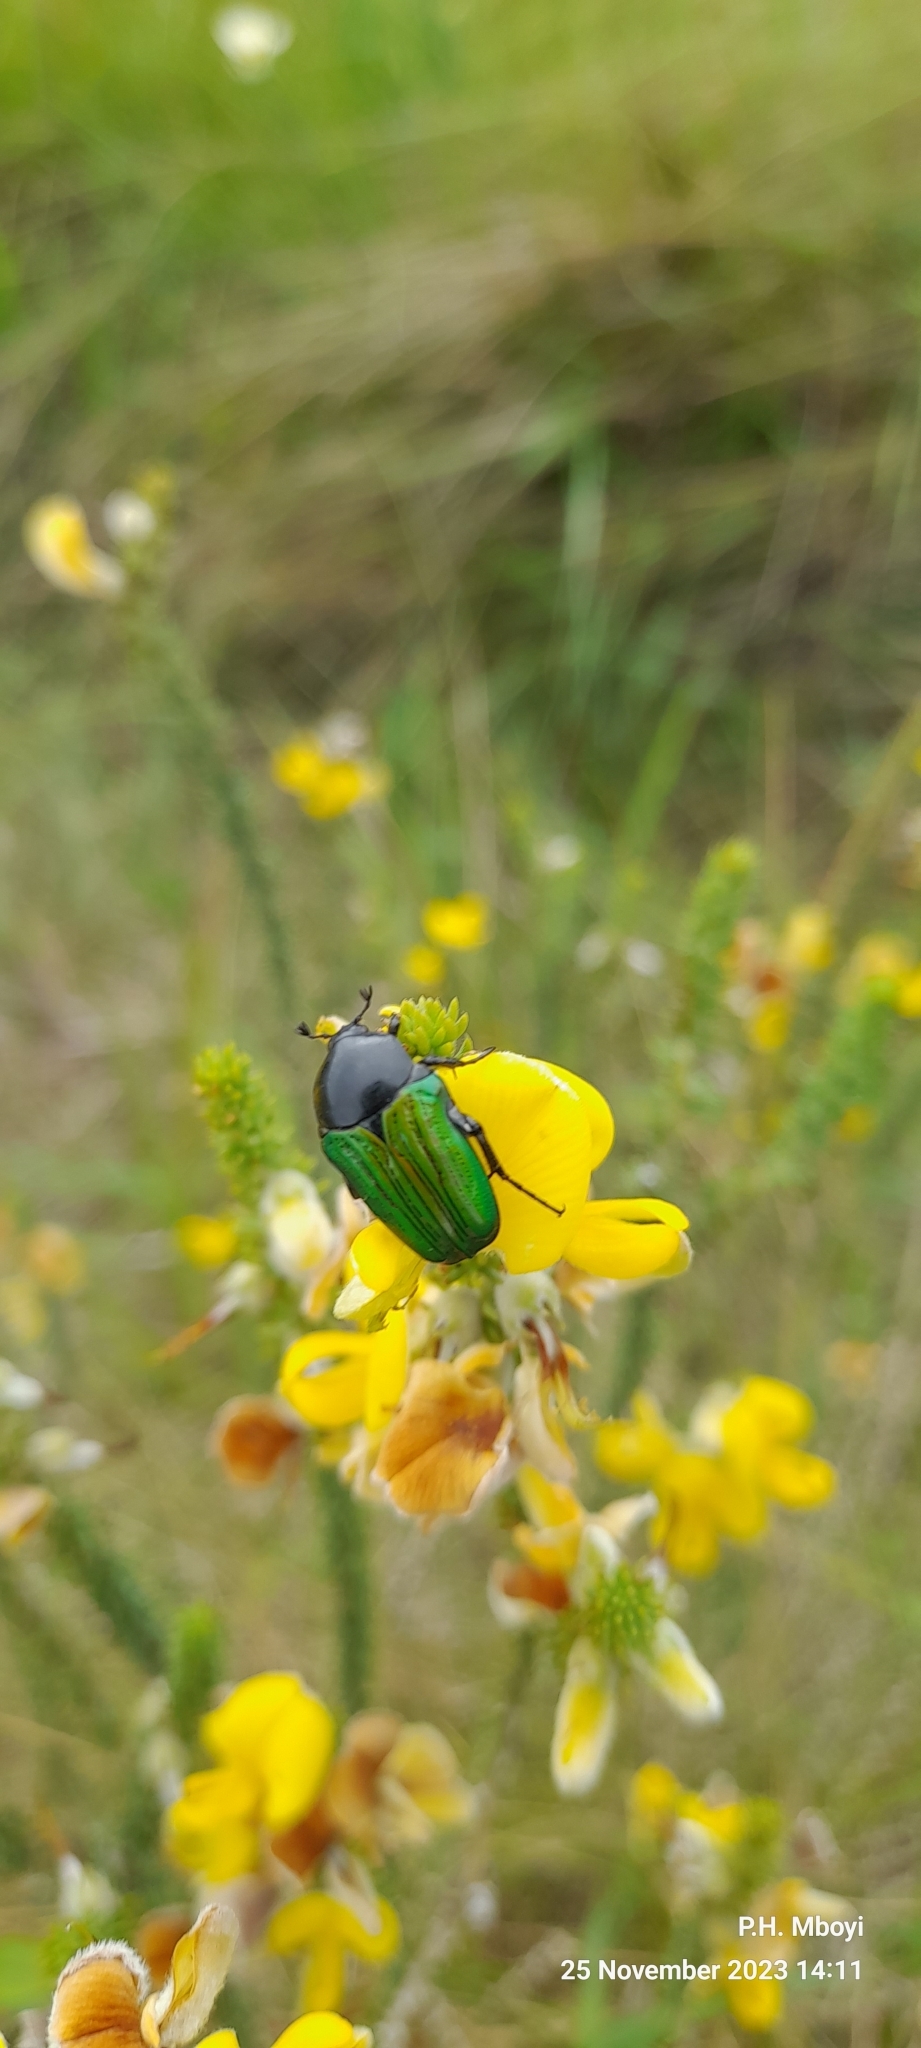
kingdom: Animalia
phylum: Arthropoda
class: Insecta
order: Coleoptera
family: Scarabaeidae
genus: Leucocelis
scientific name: Leucocelis haemorrhoidalis
